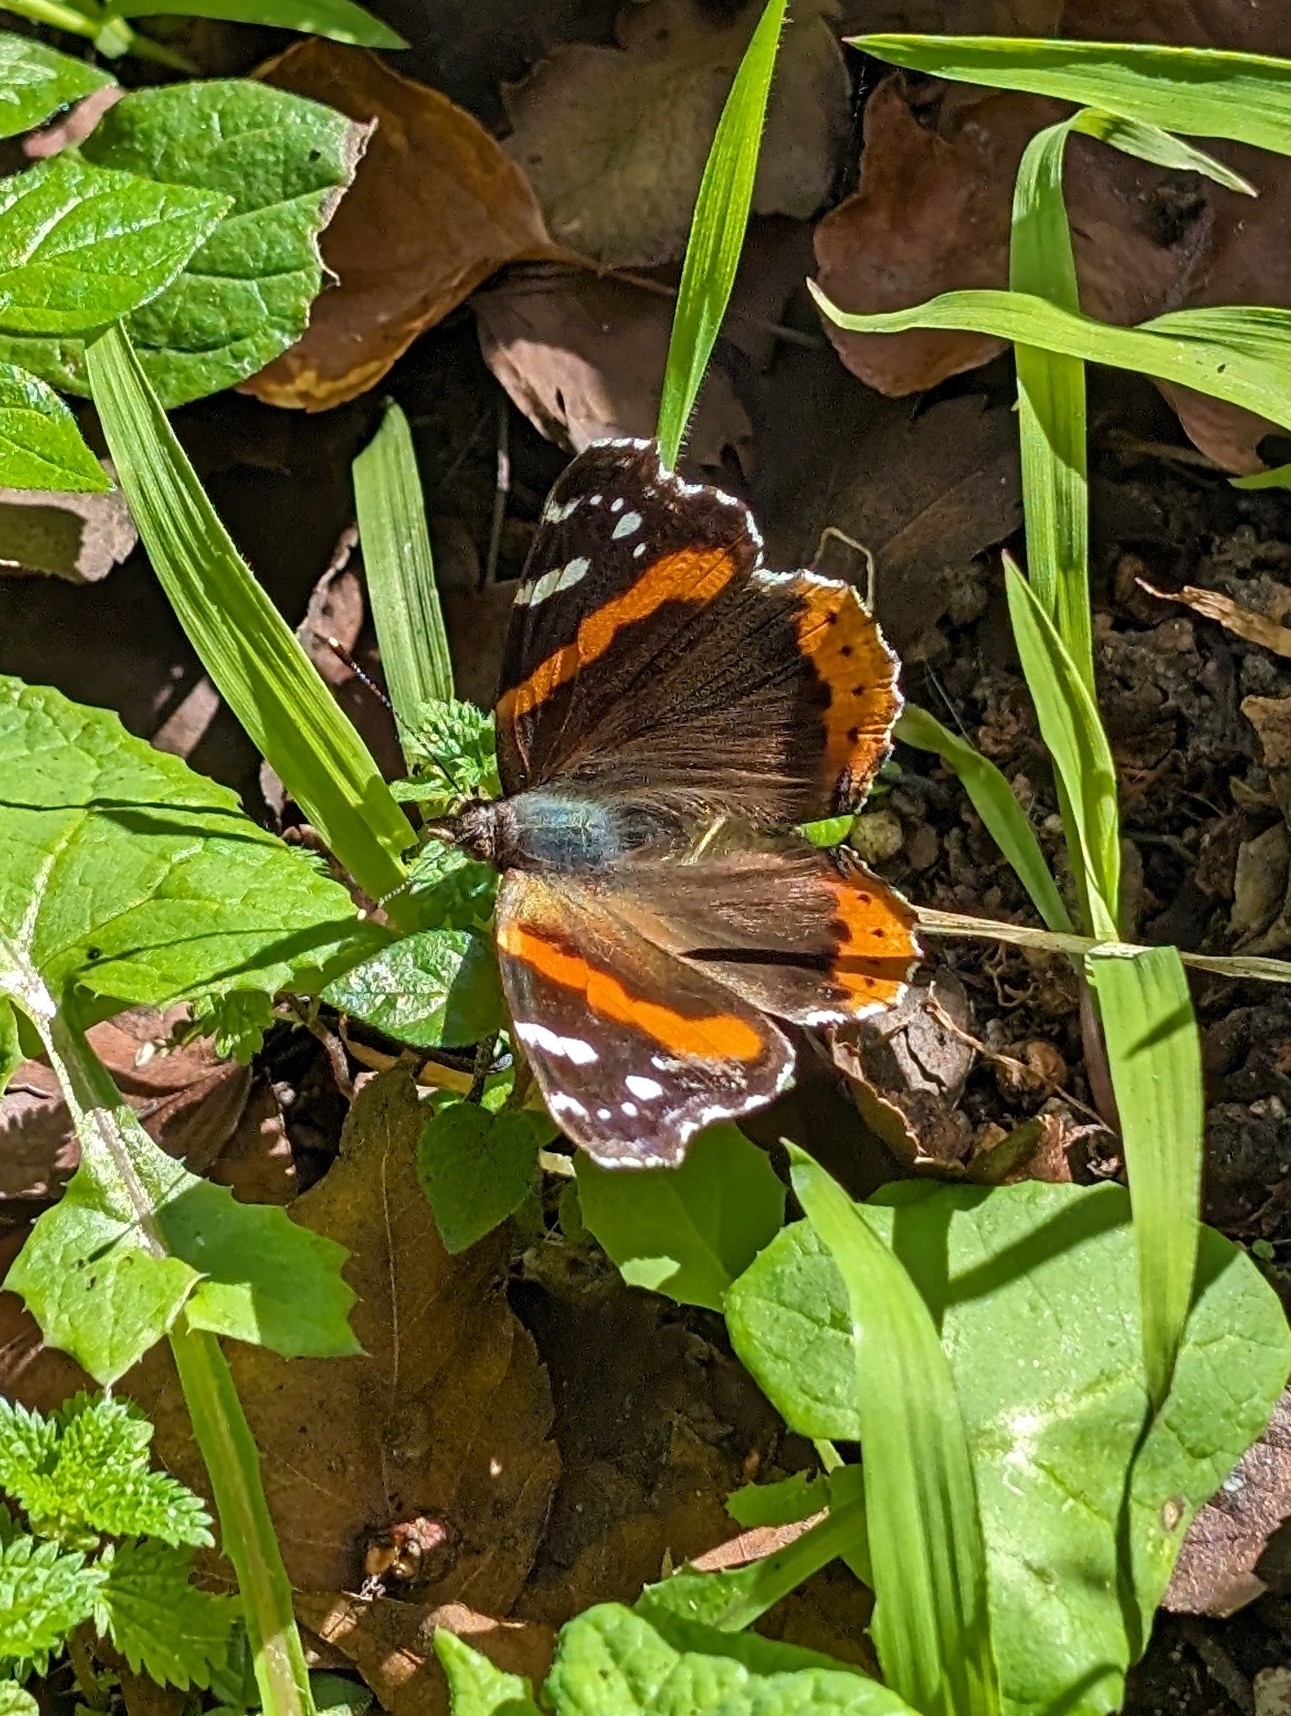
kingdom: Animalia
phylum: Arthropoda
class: Insecta
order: Lepidoptera
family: Nymphalidae
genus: Vanessa
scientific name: Vanessa atalanta
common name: Red admiral
